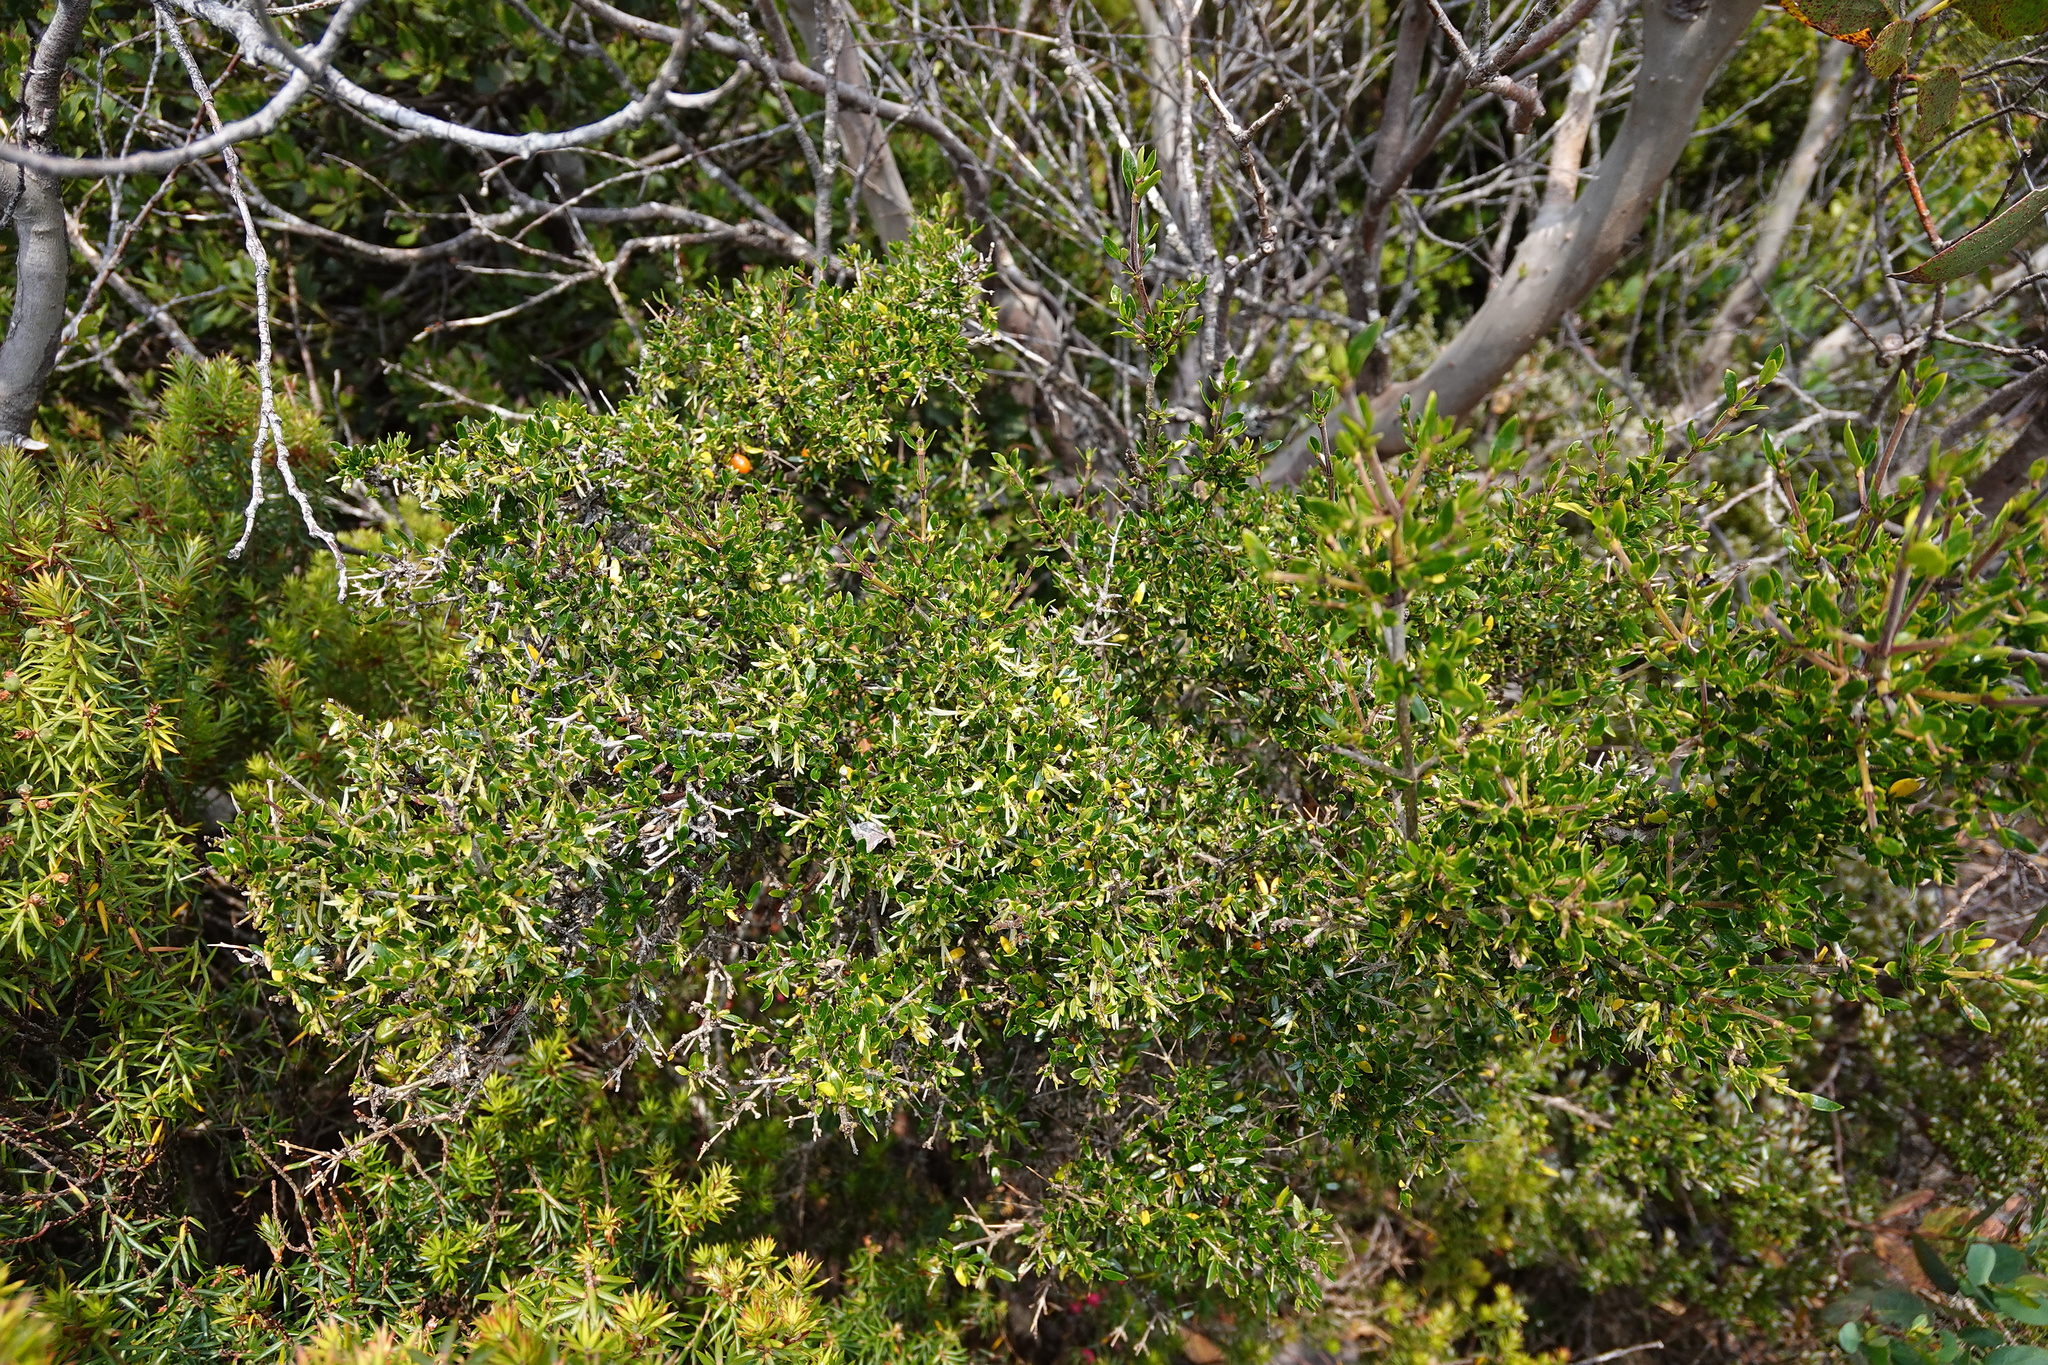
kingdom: Plantae
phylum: Tracheophyta
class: Magnoliopsida
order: Gentianales
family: Rubiaceae
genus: Coprosma
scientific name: Coprosma nitida
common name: Shining coprosma
